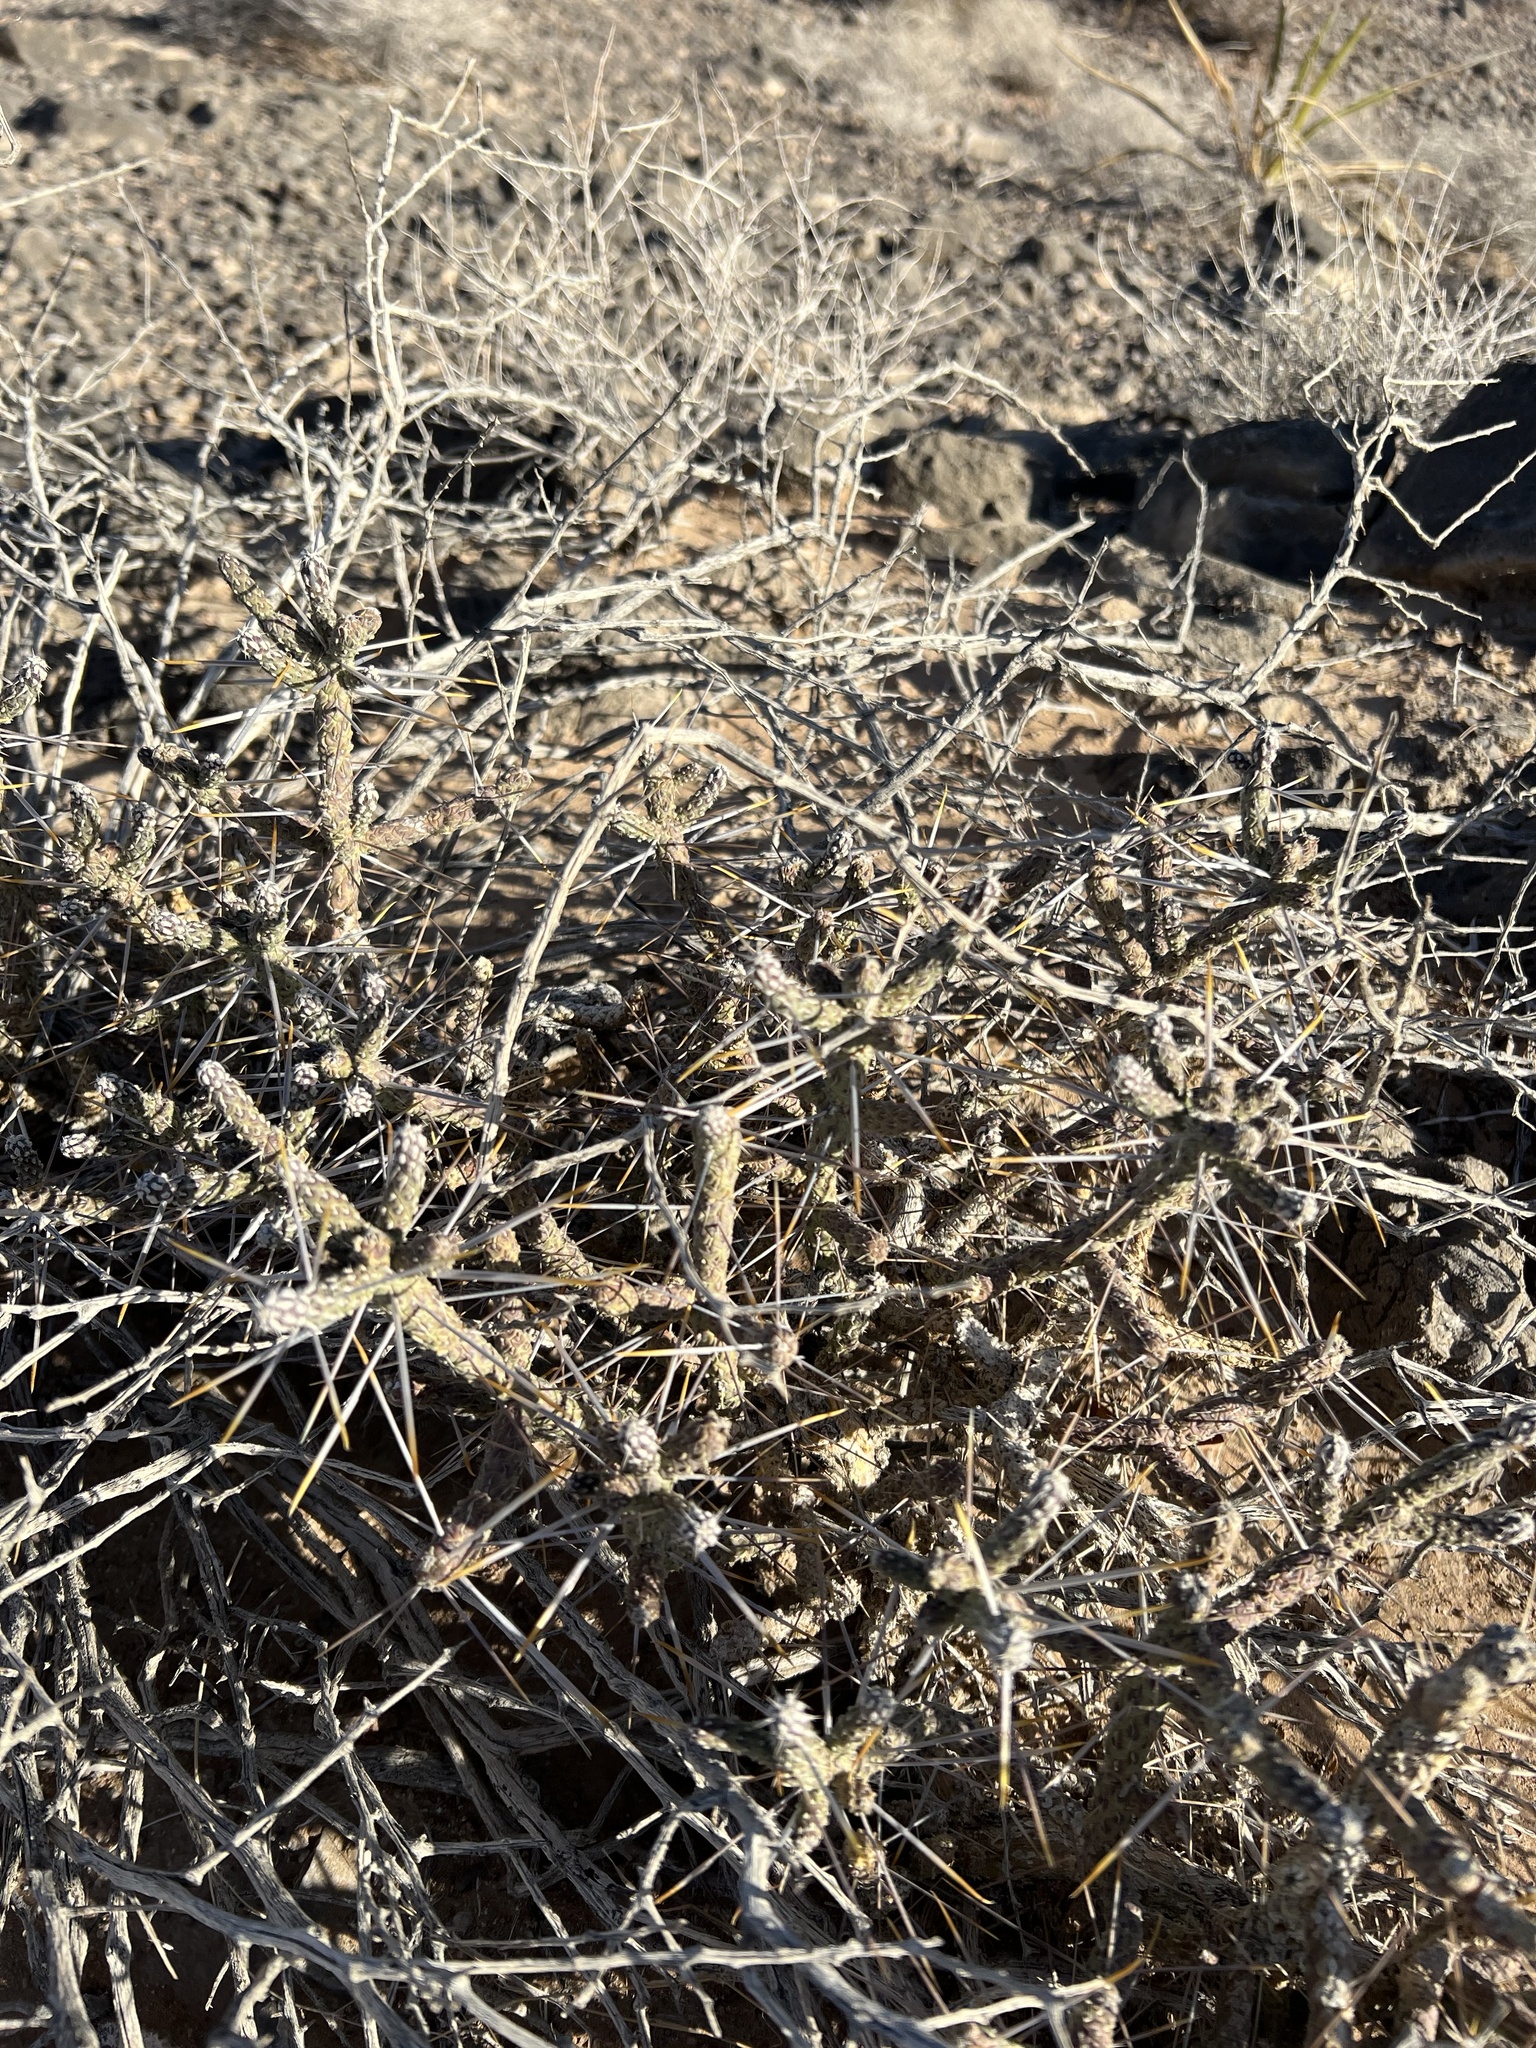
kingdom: Plantae
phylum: Tracheophyta
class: Magnoliopsida
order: Caryophyllales
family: Cactaceae
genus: Cylindropuntia
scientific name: Cylindropuntia ramosissima
